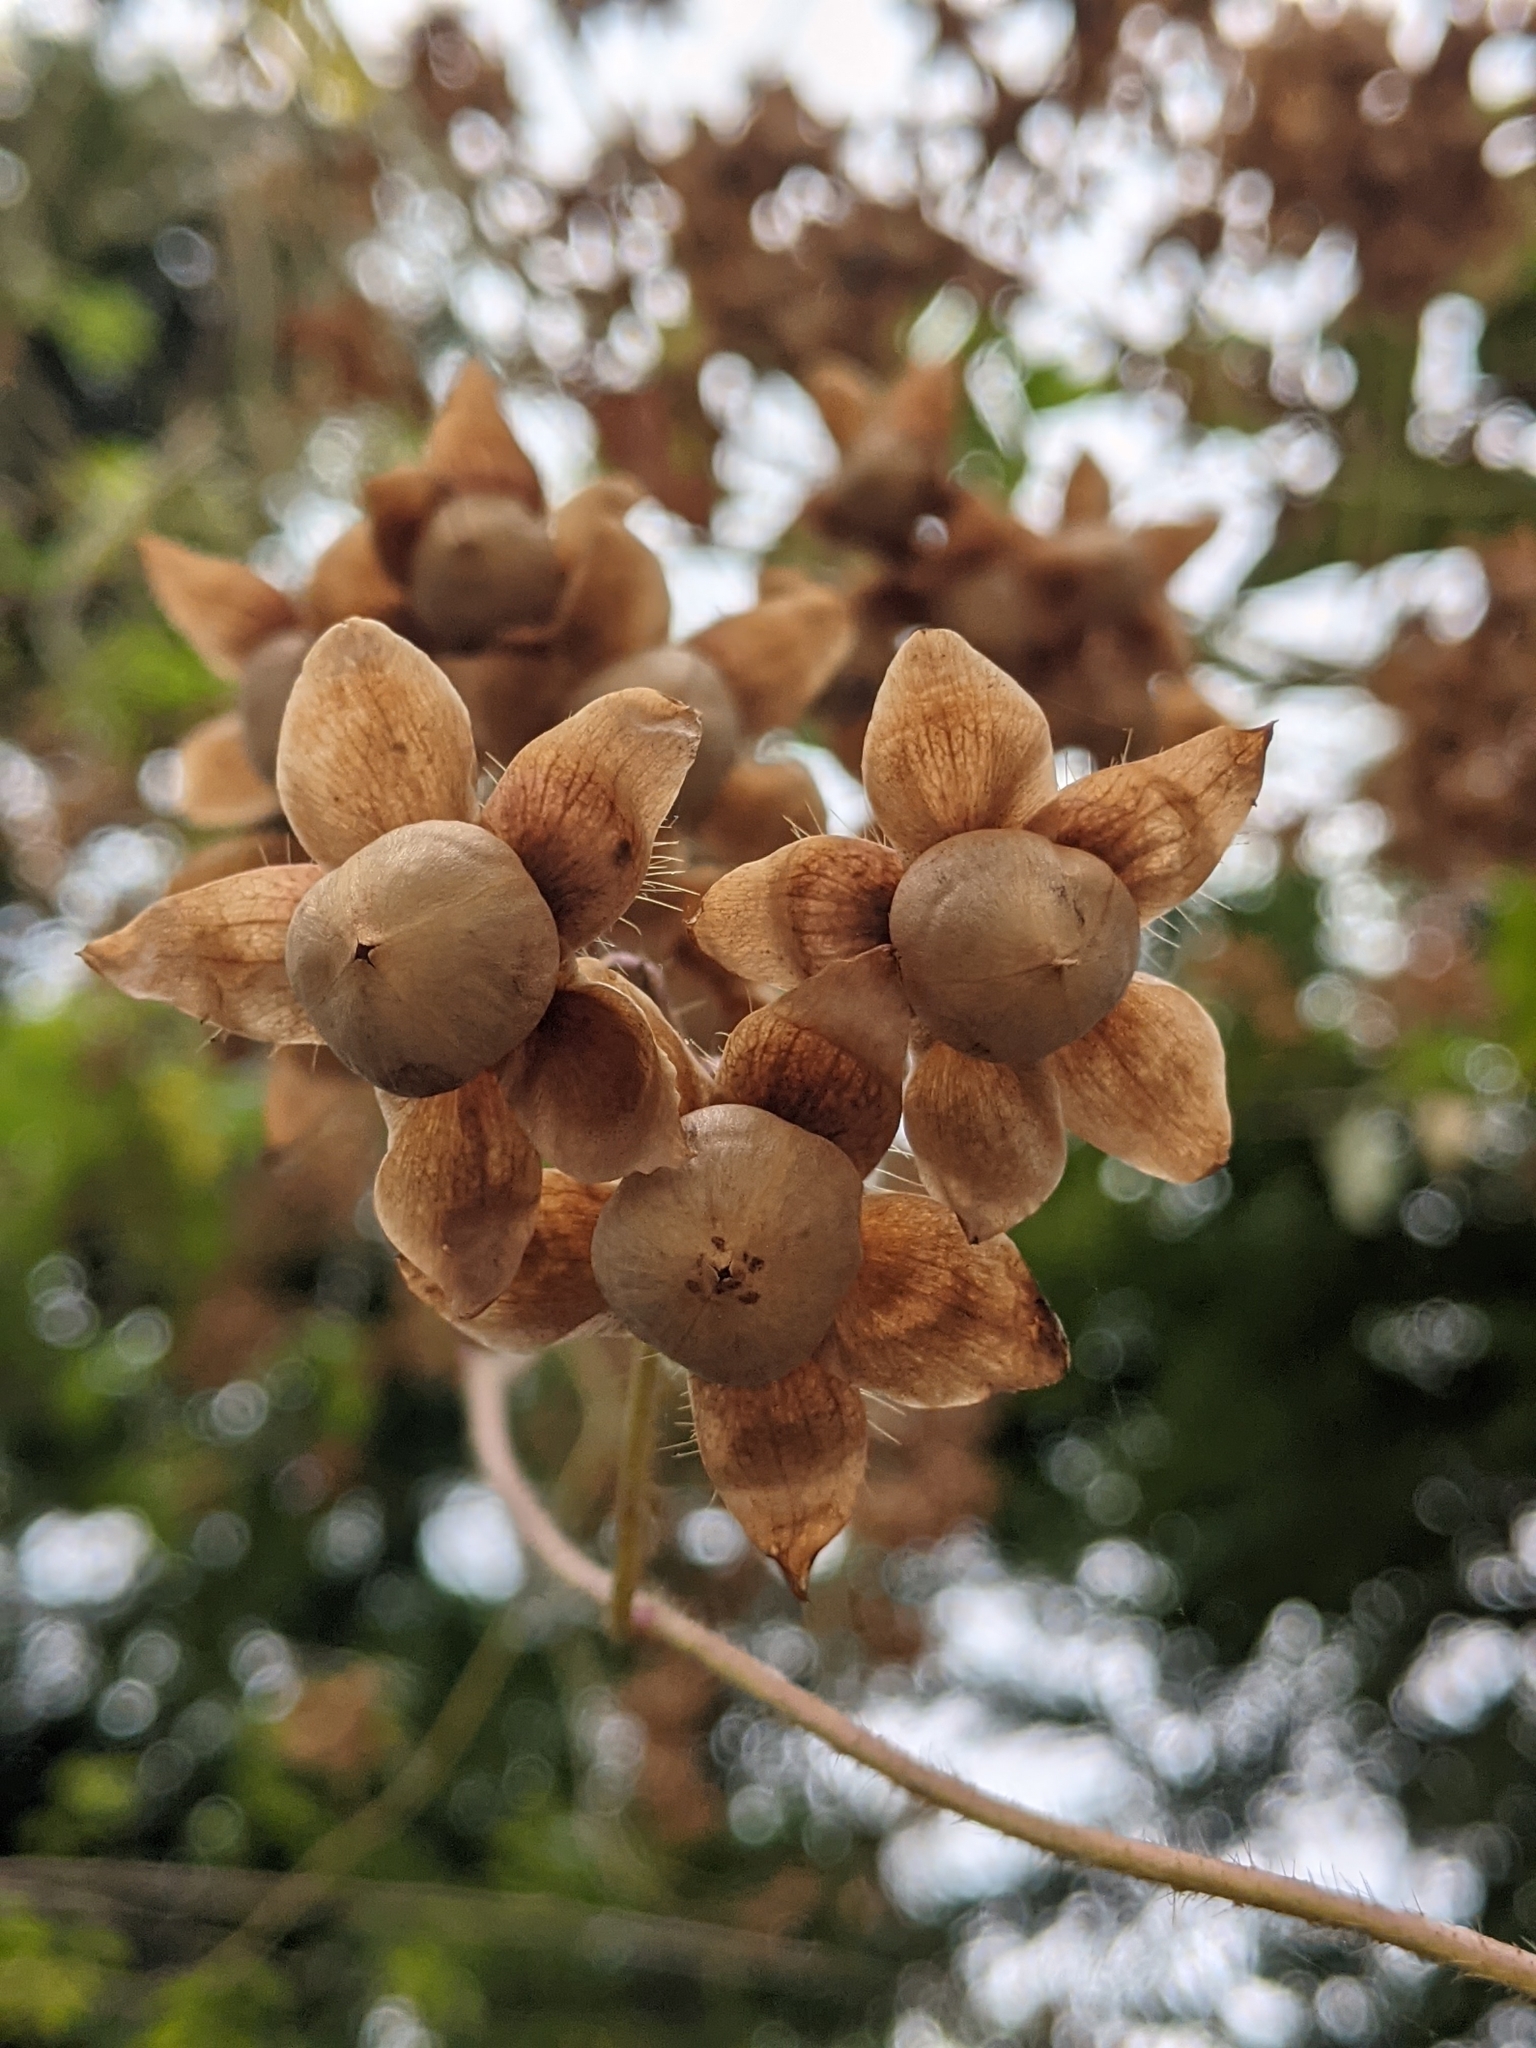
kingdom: Plantae
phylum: Tracheophyta
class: Magnoliopsida
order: Solanales
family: Convolvulaceae
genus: Distimake
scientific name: Distimake aegyptius
